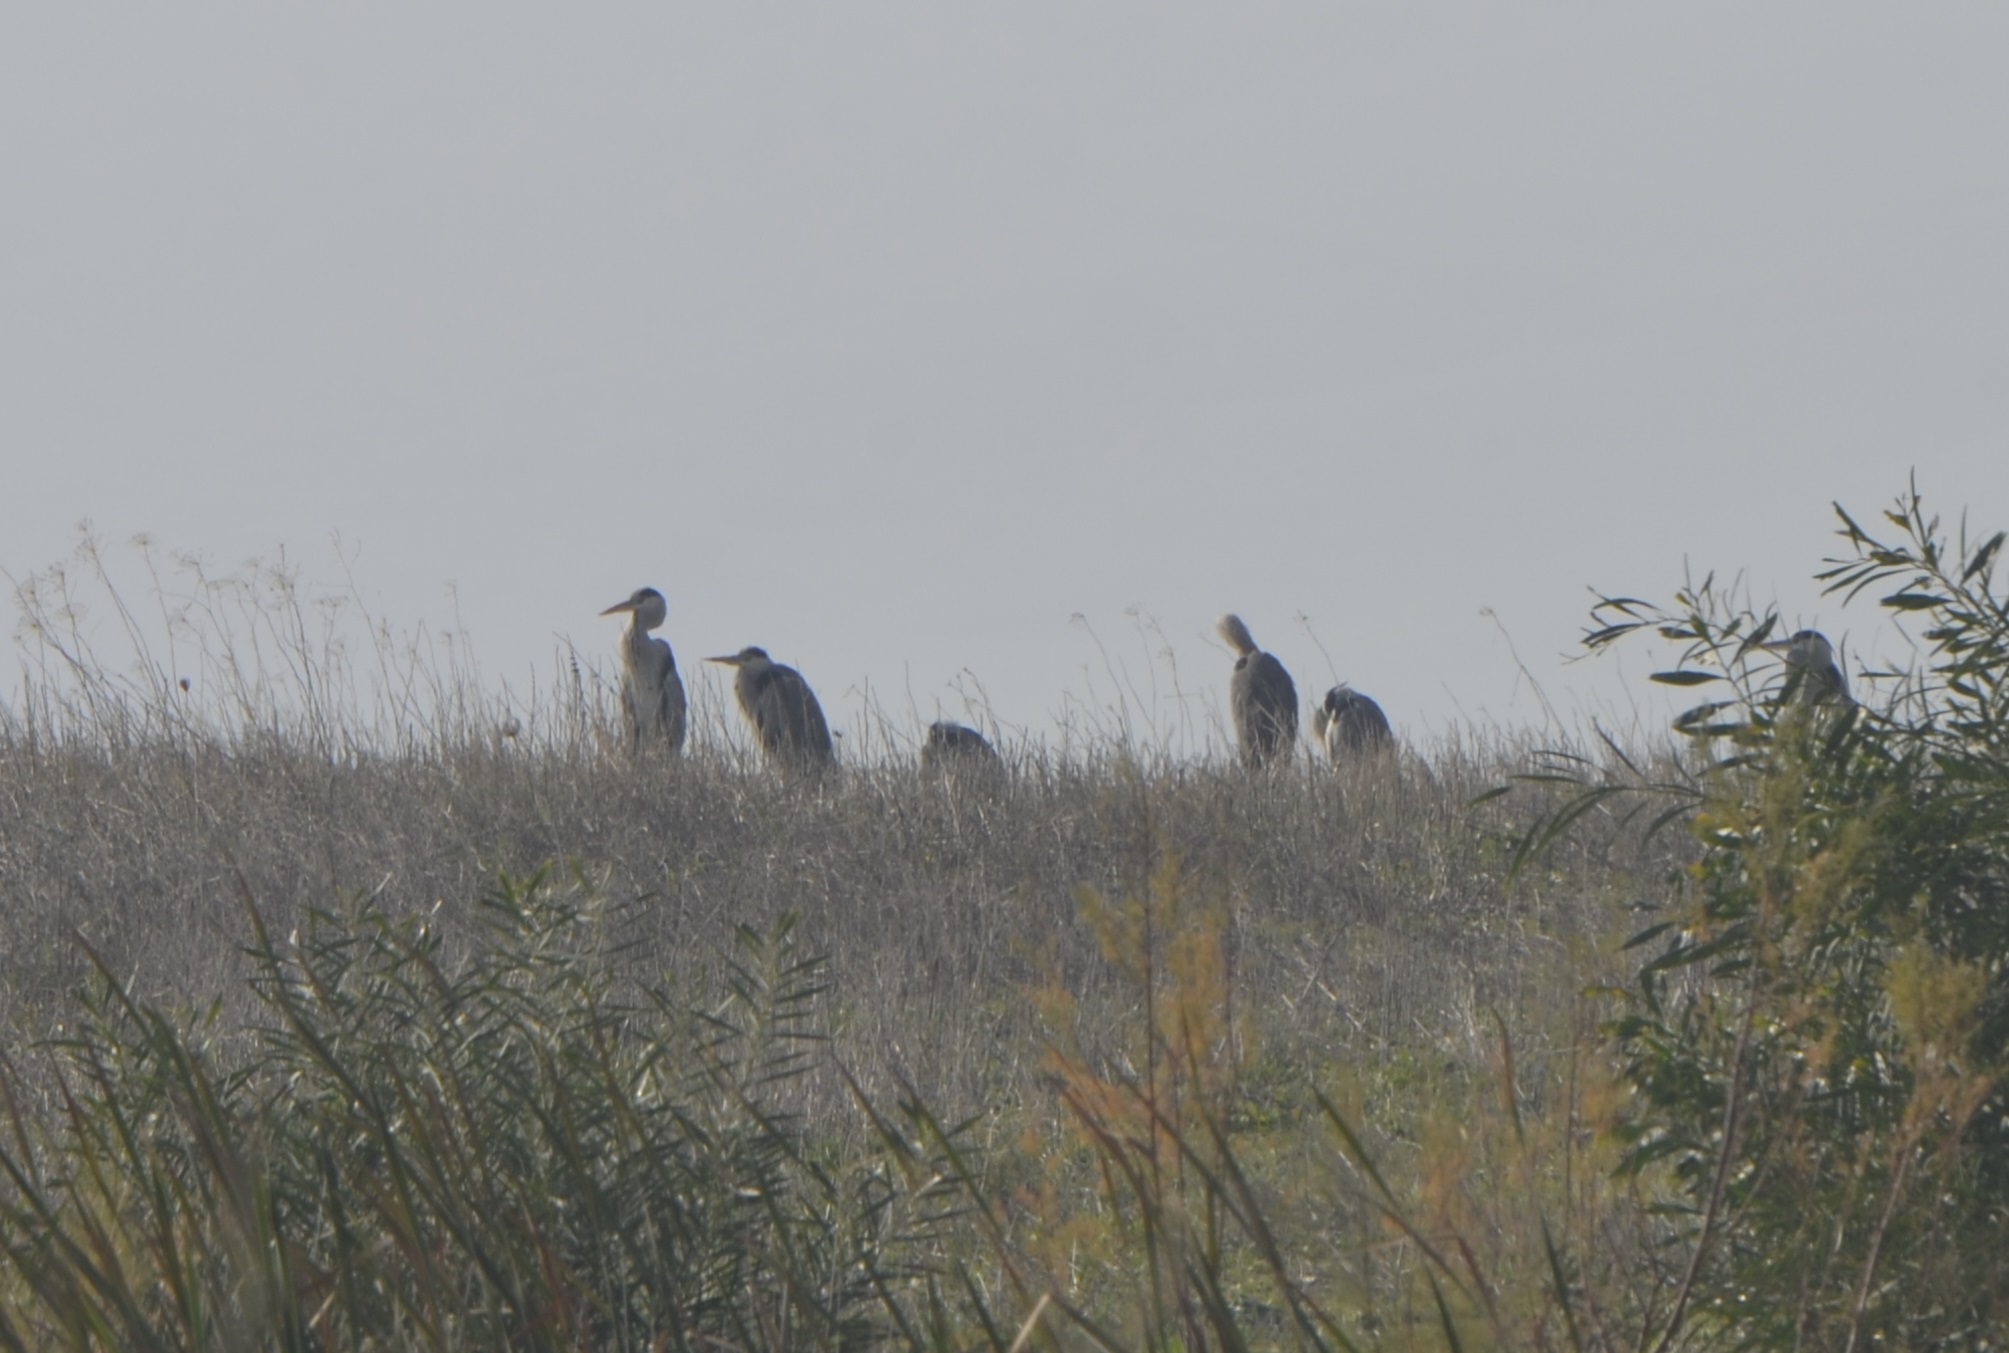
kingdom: Animalia
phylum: Chordata
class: Aves
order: Pelecaniformes
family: Ardeidae
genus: Ardea
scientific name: Ardea cinerea
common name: Grey heron
